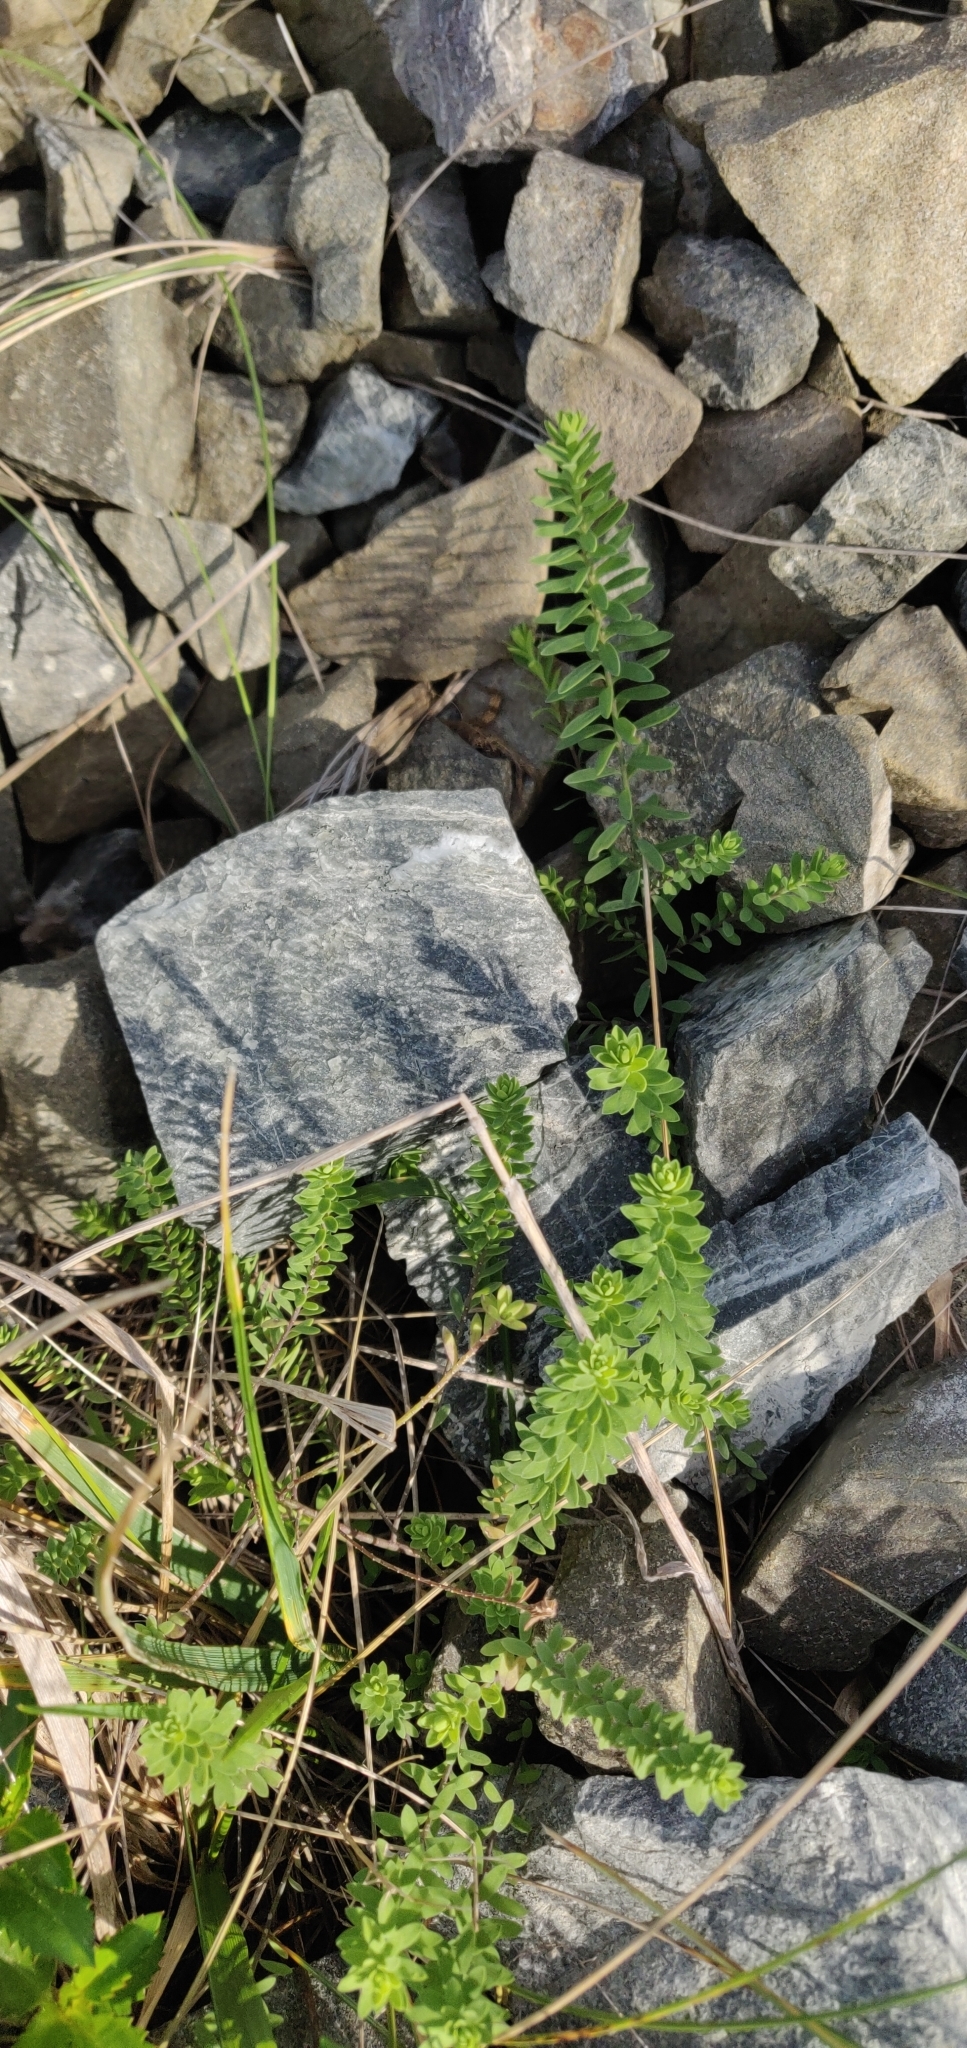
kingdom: Plantae
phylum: Tracheophyta
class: Magnoliopsida
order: Malpighiales
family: Linaceae
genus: Linum
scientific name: Linum monogynum
